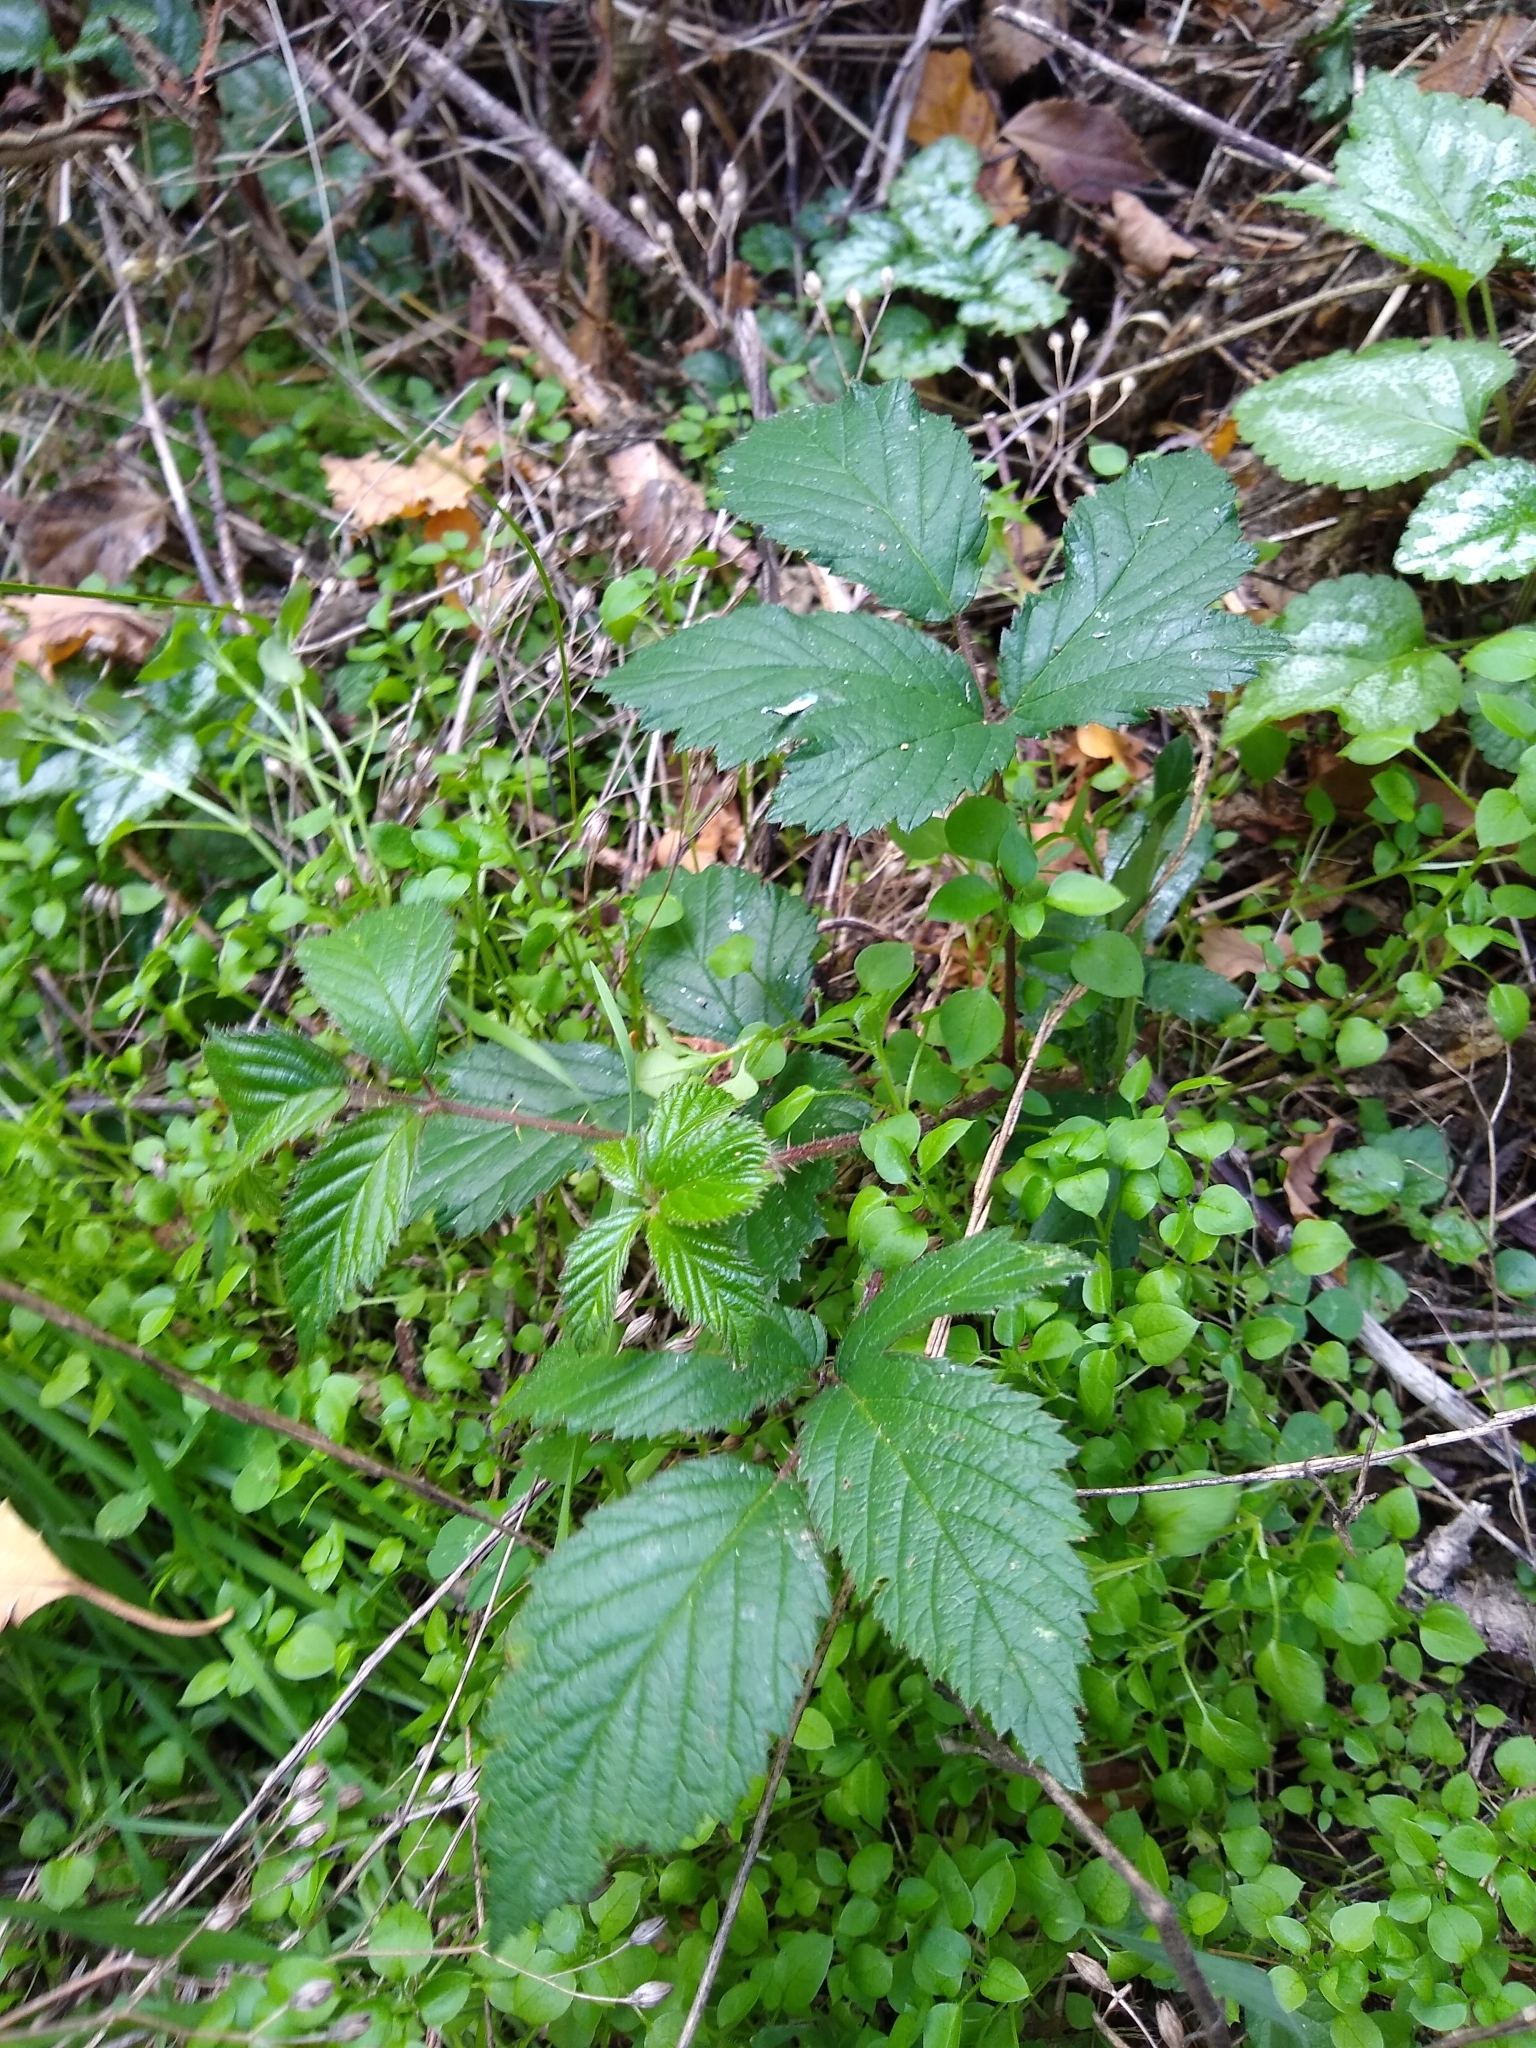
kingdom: Plantae
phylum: Tracheophyta
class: Magnoliopsida
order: Rosales
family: Rosaceae
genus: Rubus
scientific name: Rubus
